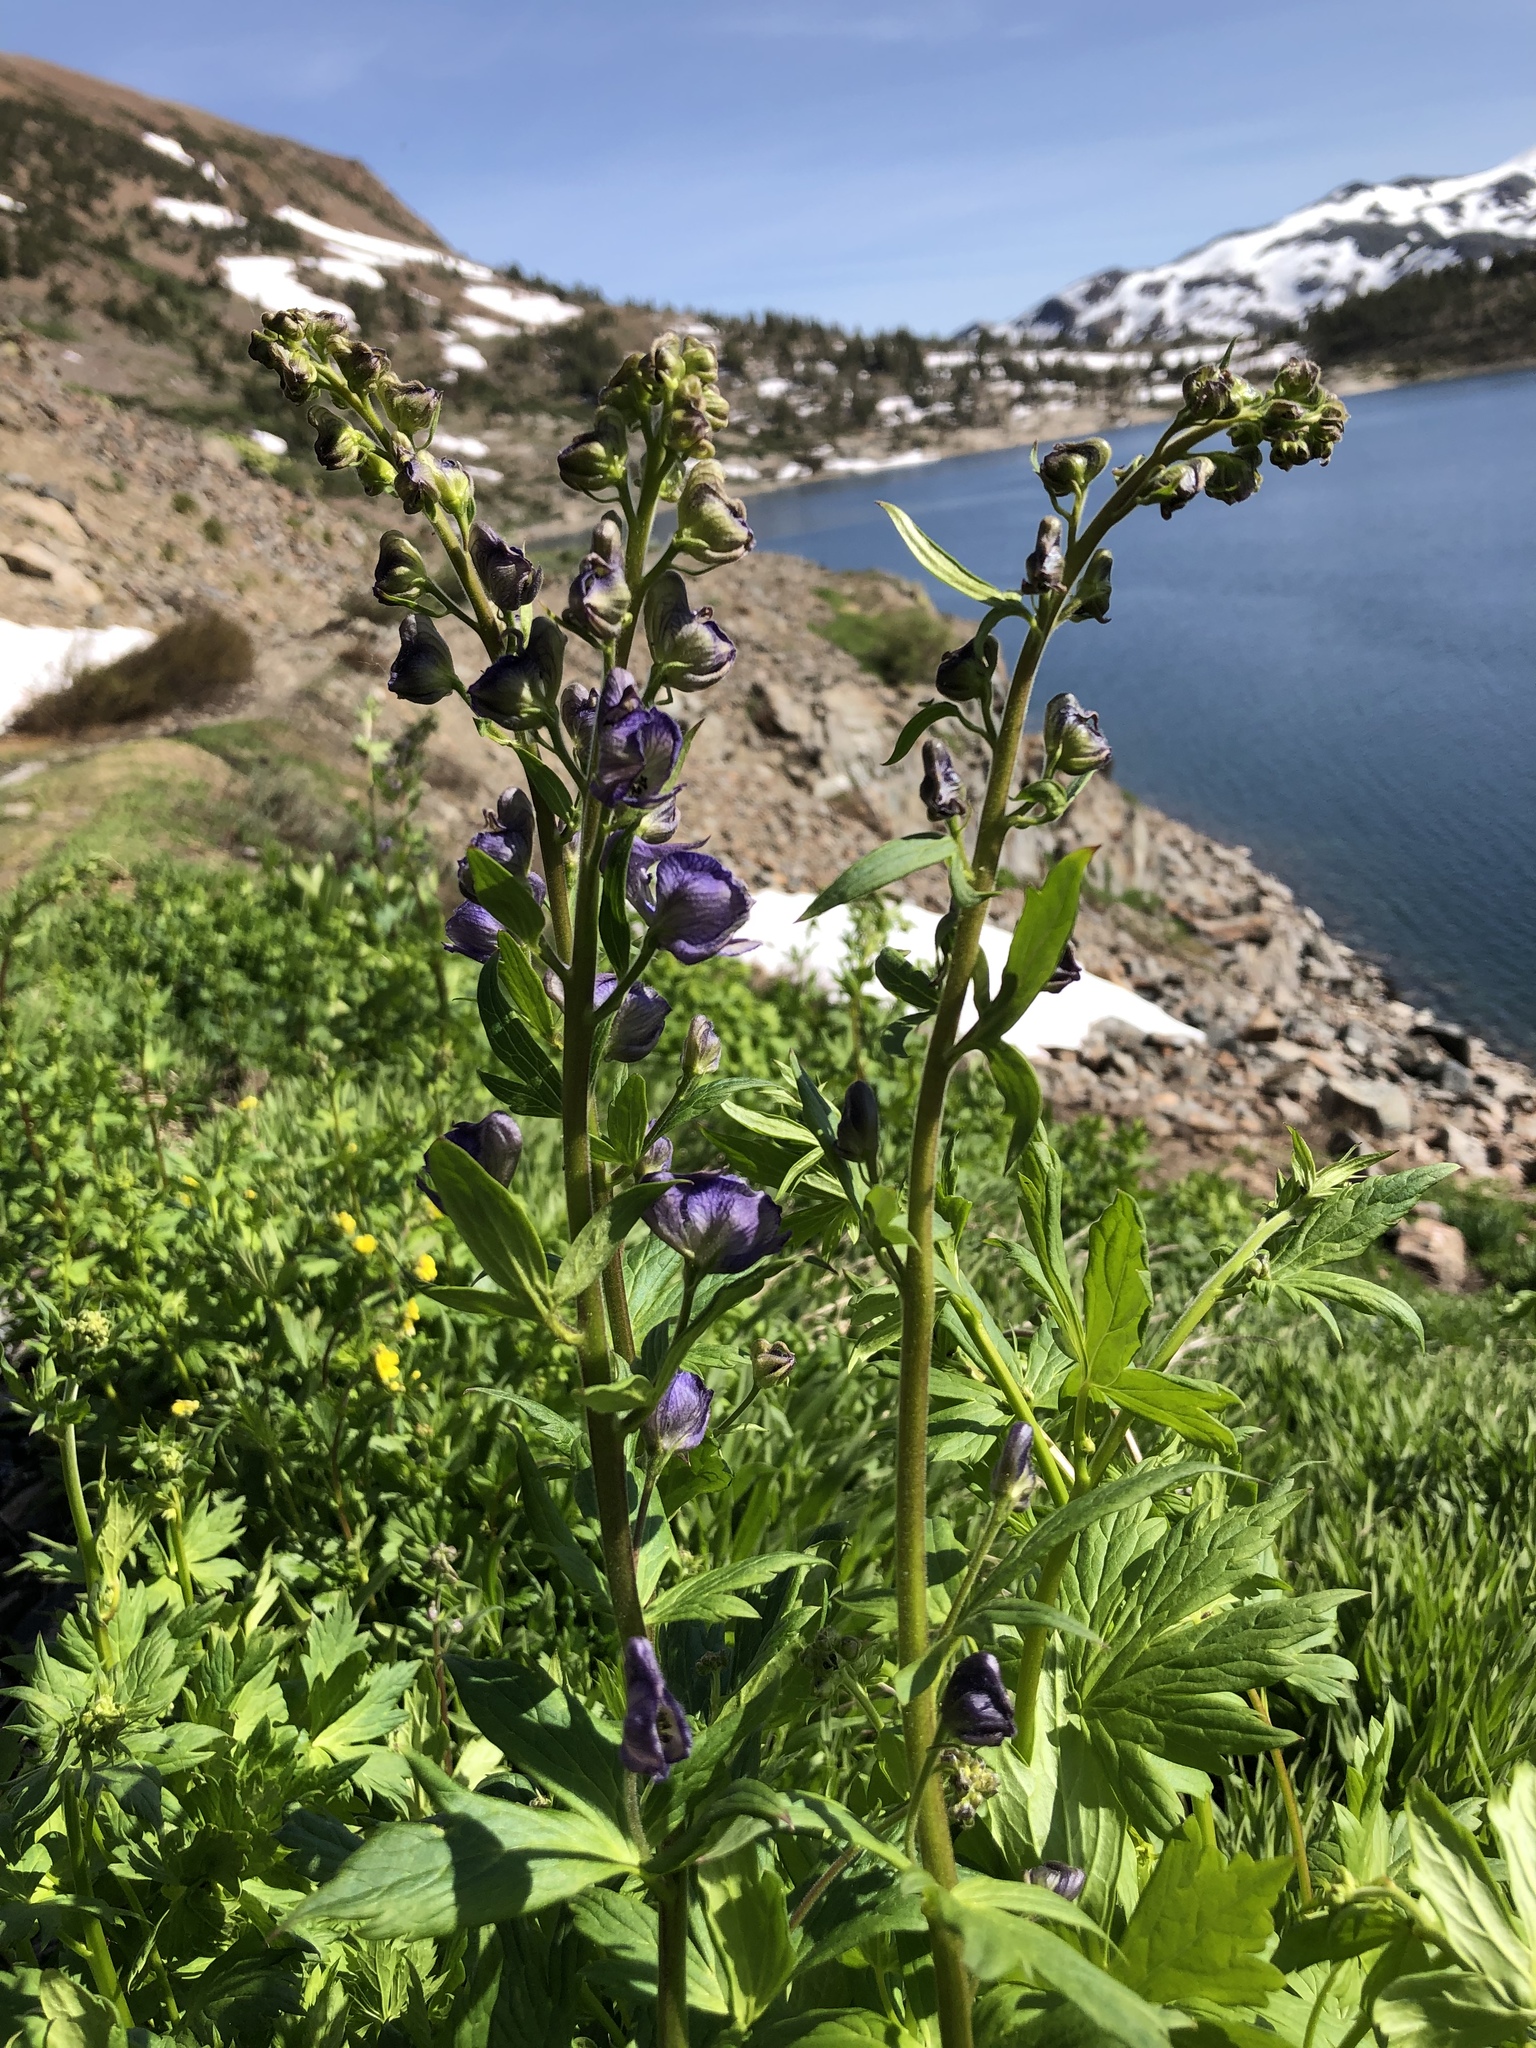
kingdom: Plantae
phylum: Tracheophyta
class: Magnoliopsida
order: Ranunculales
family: Ranunculaceae
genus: Aconitum
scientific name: Aconitum columbianum
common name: Columbia aconite
